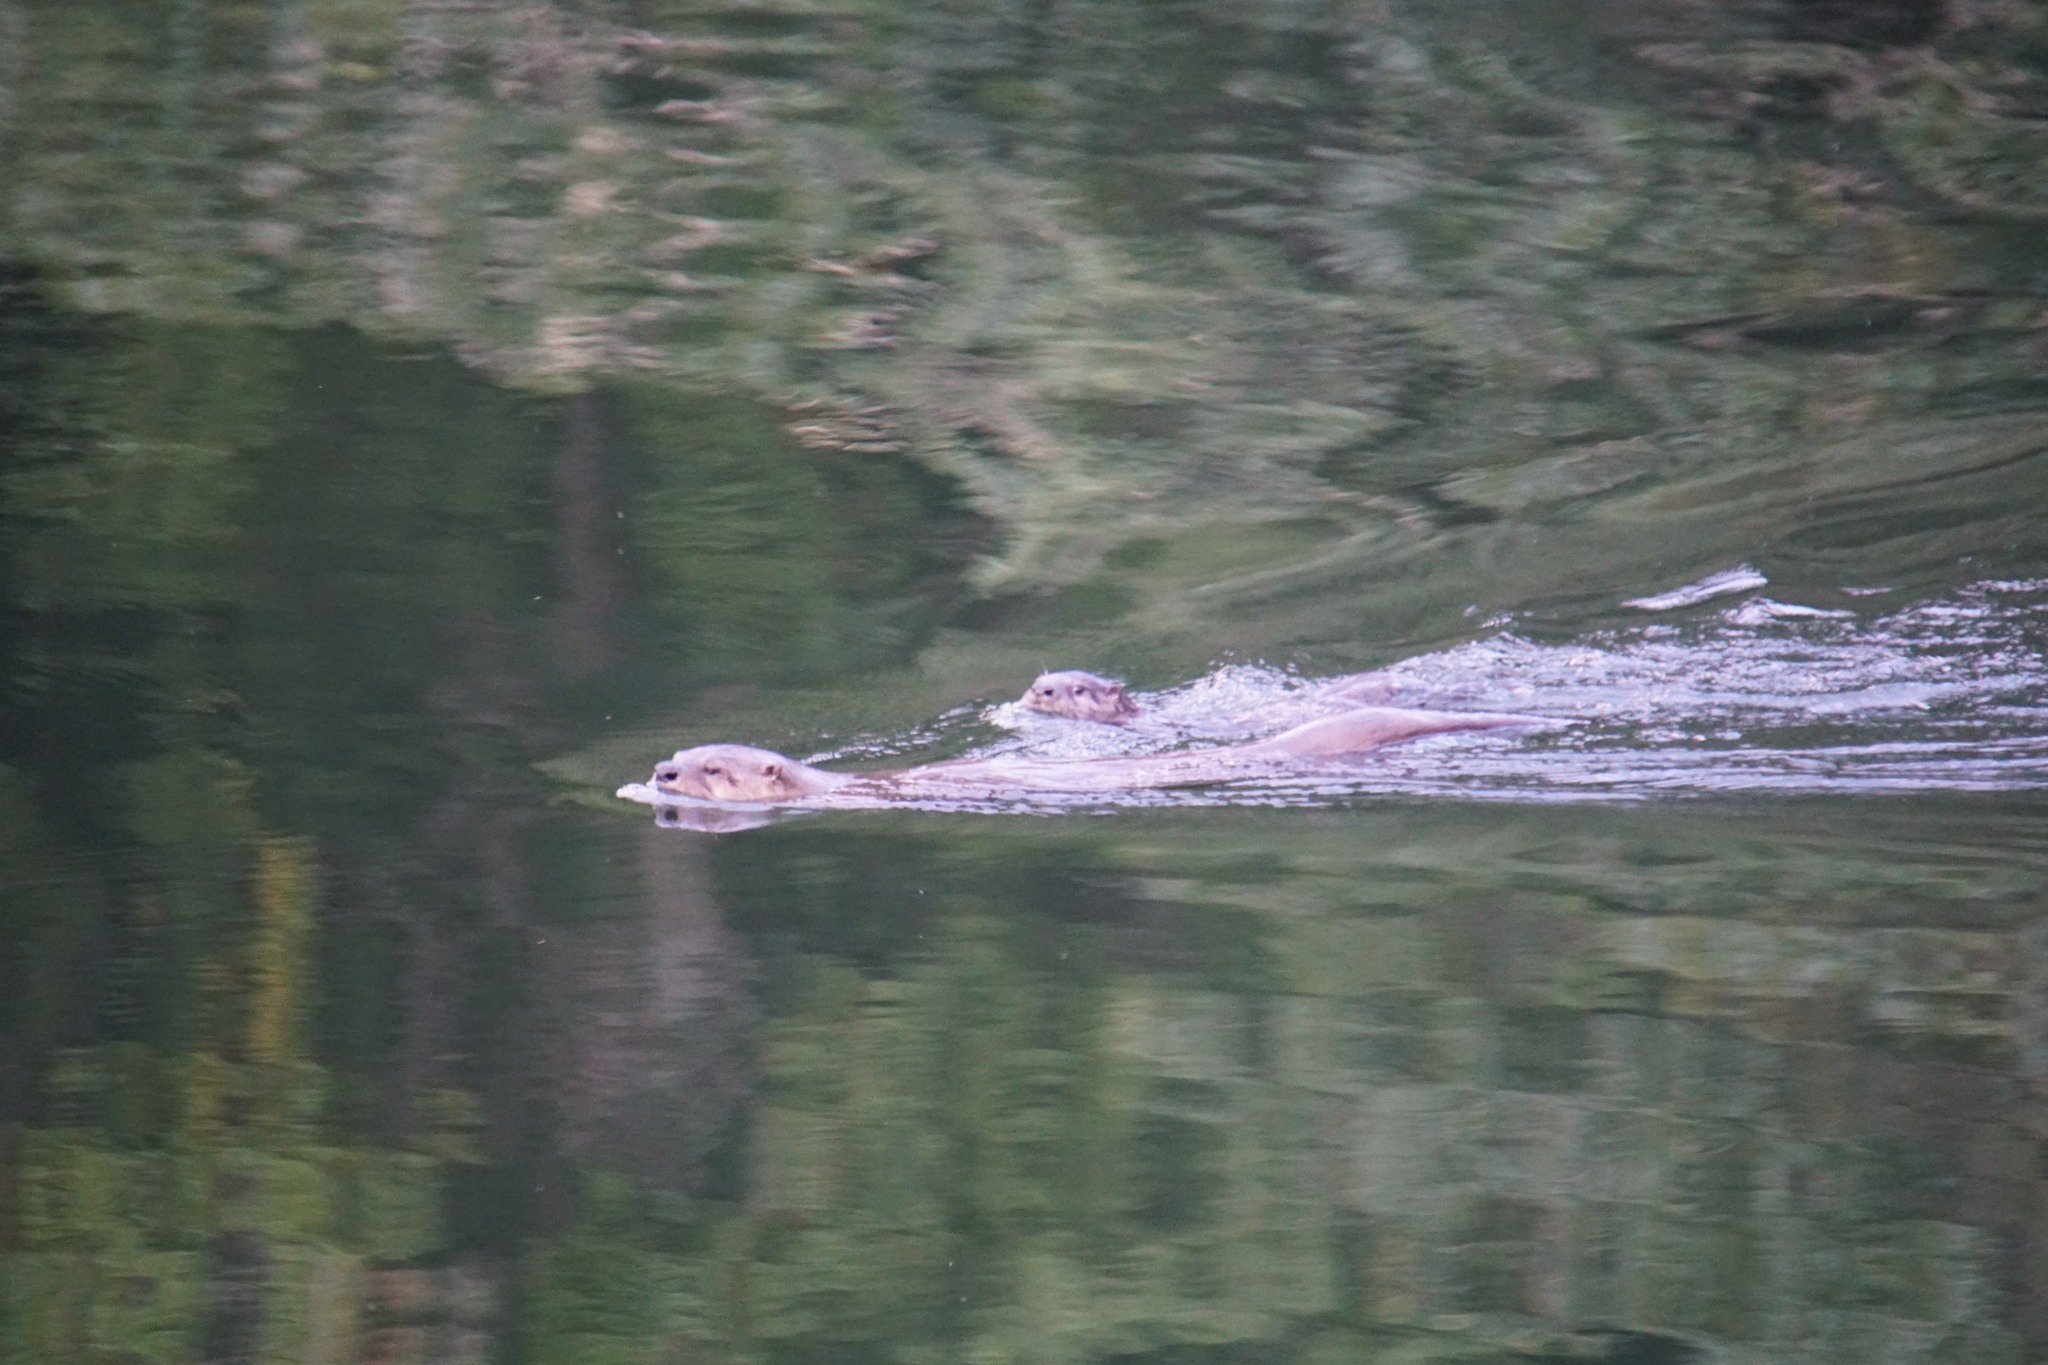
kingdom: Animalia
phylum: Chordata
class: Mammalia
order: Carnivora
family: Mustelidae
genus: Lontra
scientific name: Lontra canadensis
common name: North american river otter
